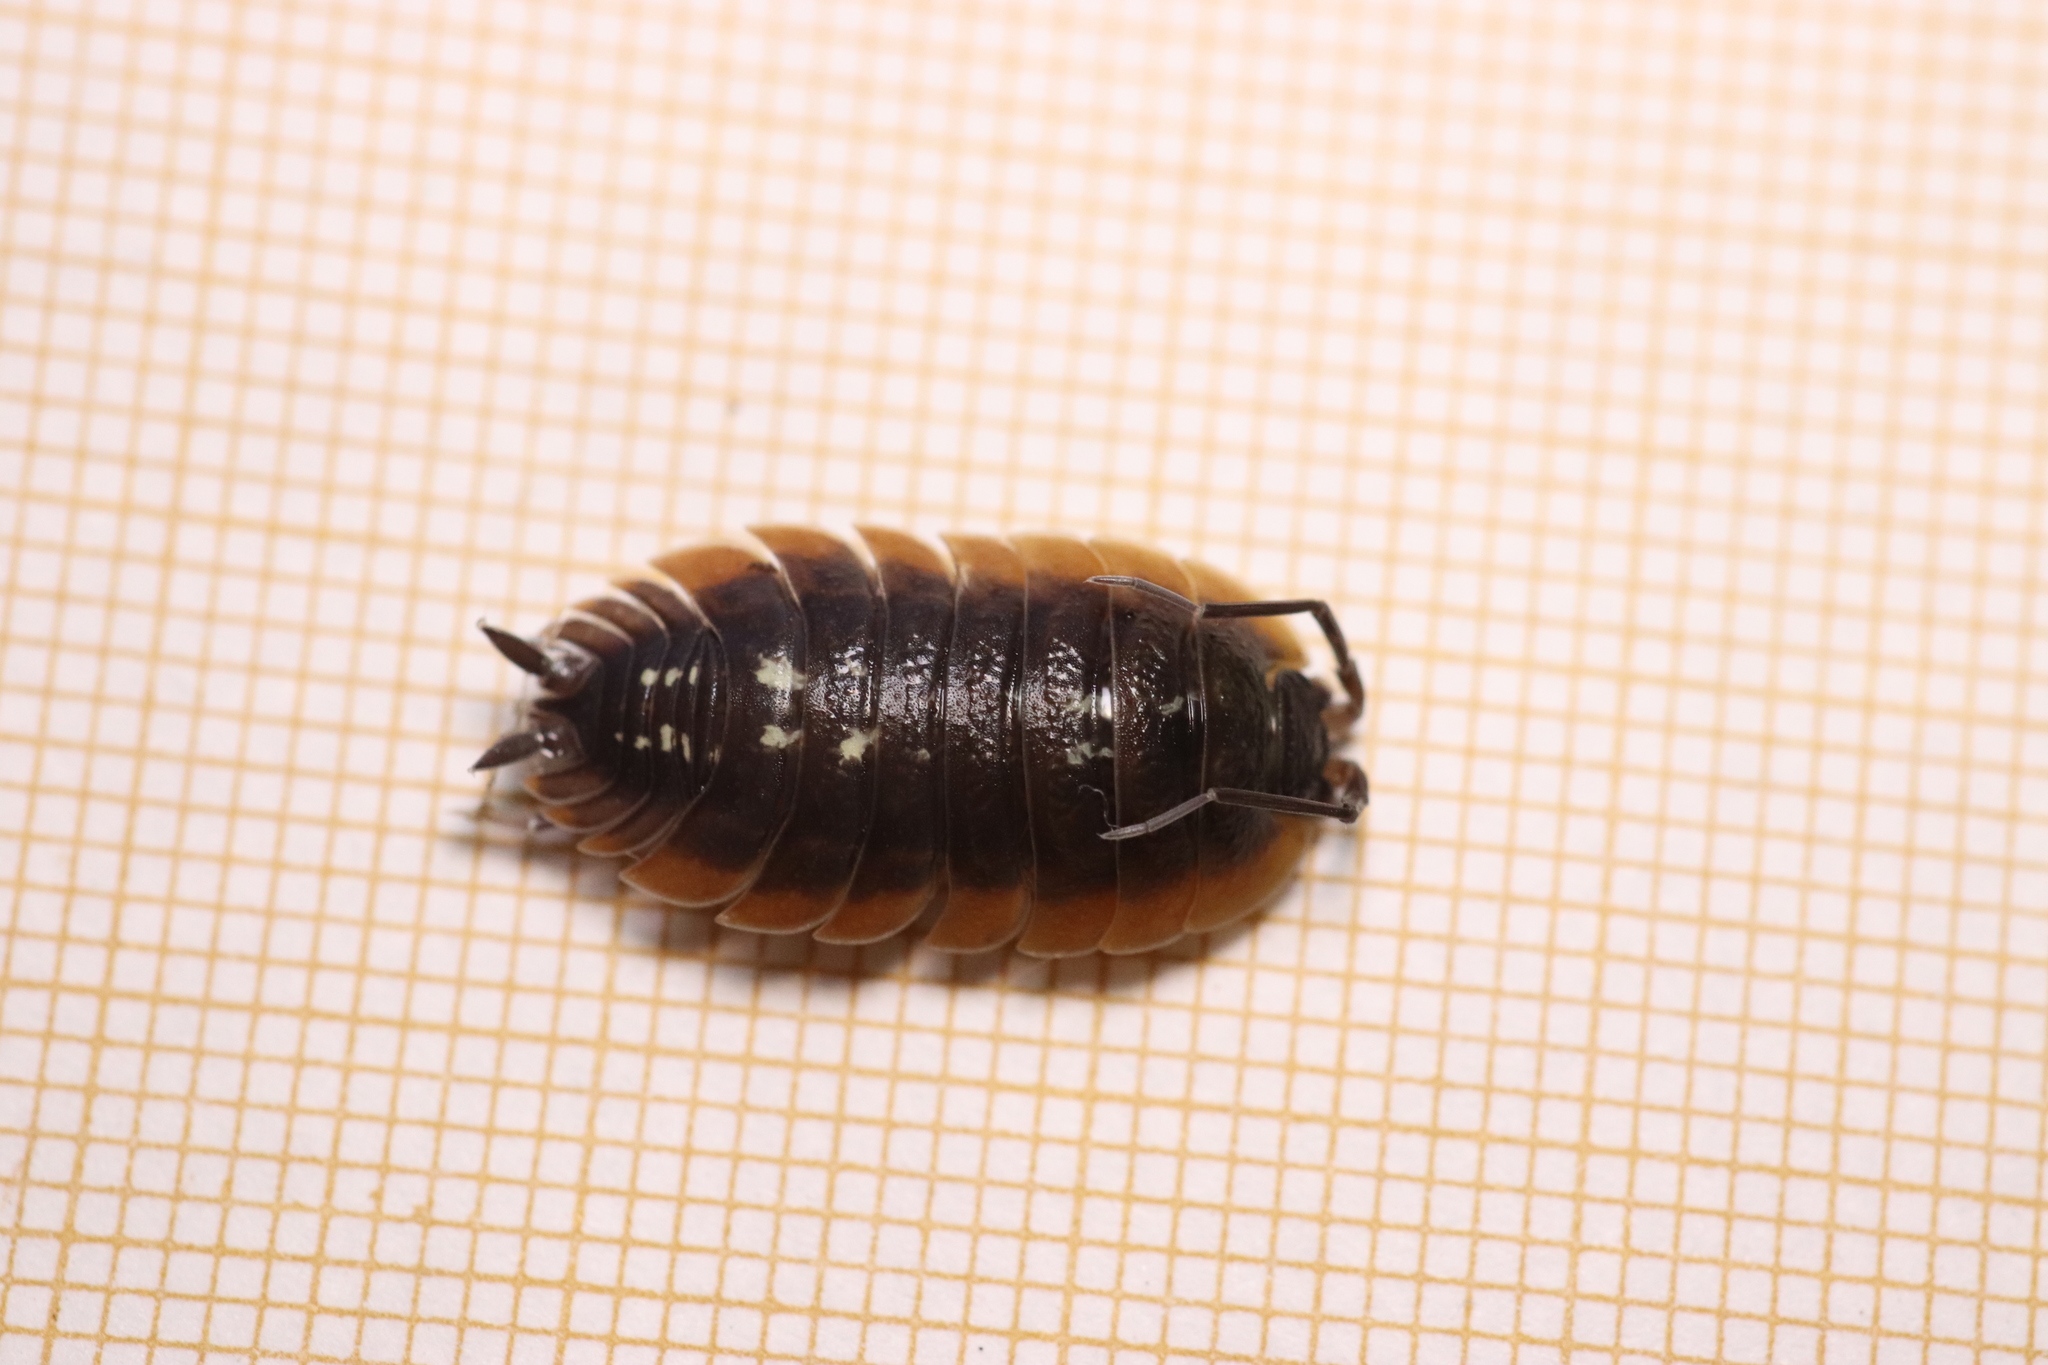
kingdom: Animalia
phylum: Arthropoda
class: Malacostraca
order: Isopoda
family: Porcellionidae
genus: Porcellio
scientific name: Porcellio duboscqui
